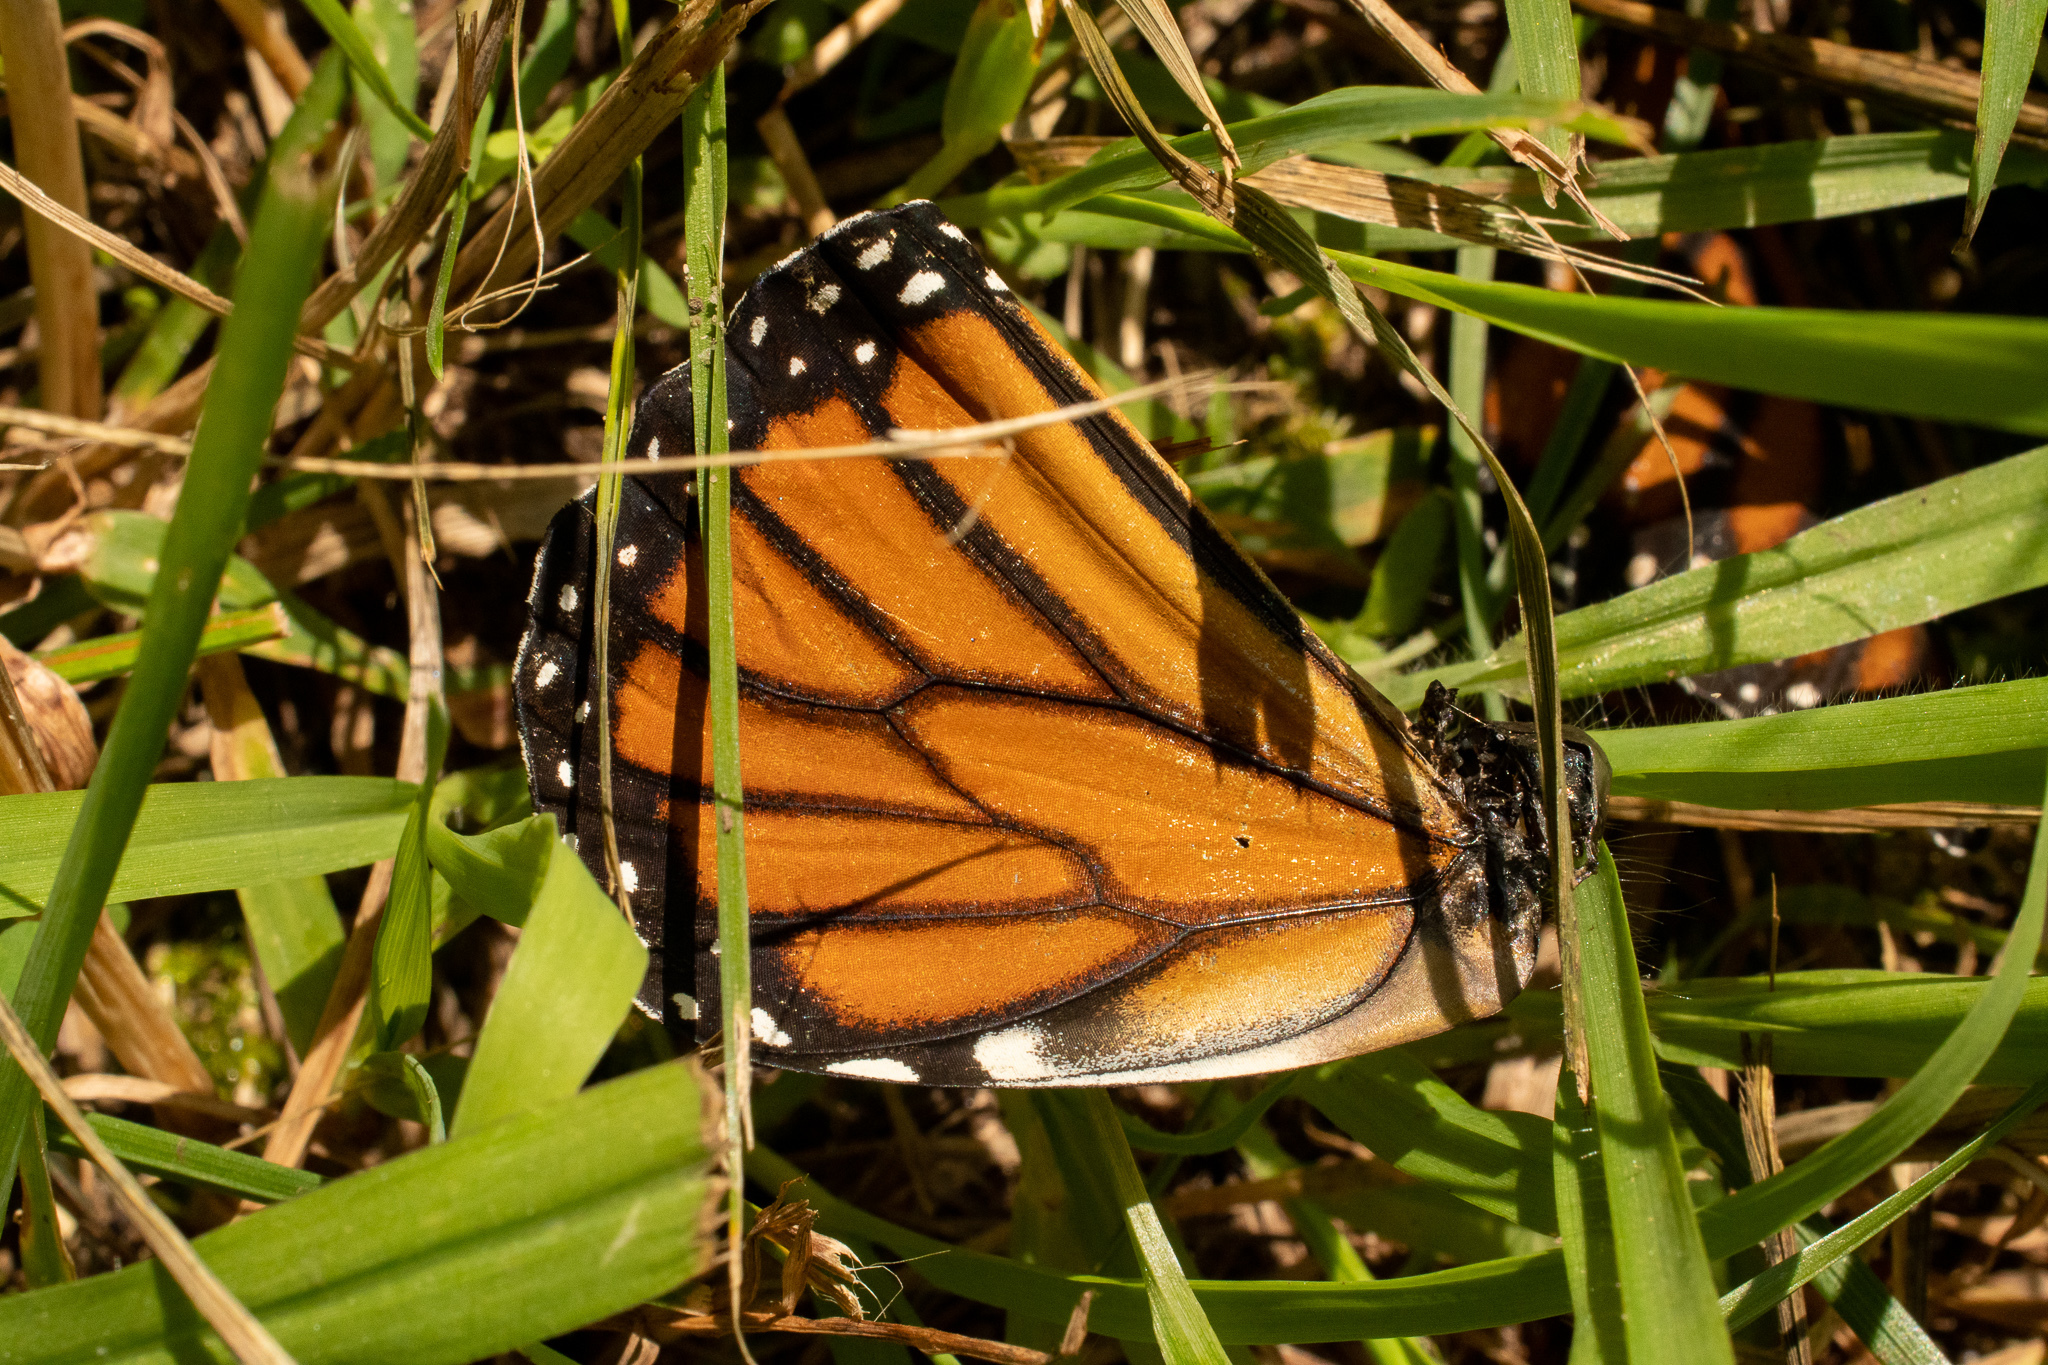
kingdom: Animalia
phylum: Arthropoda
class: Insecta
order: Lepidoptera
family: Nymphalidae
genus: Danaus
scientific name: Danaus plexippus
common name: Monarch
